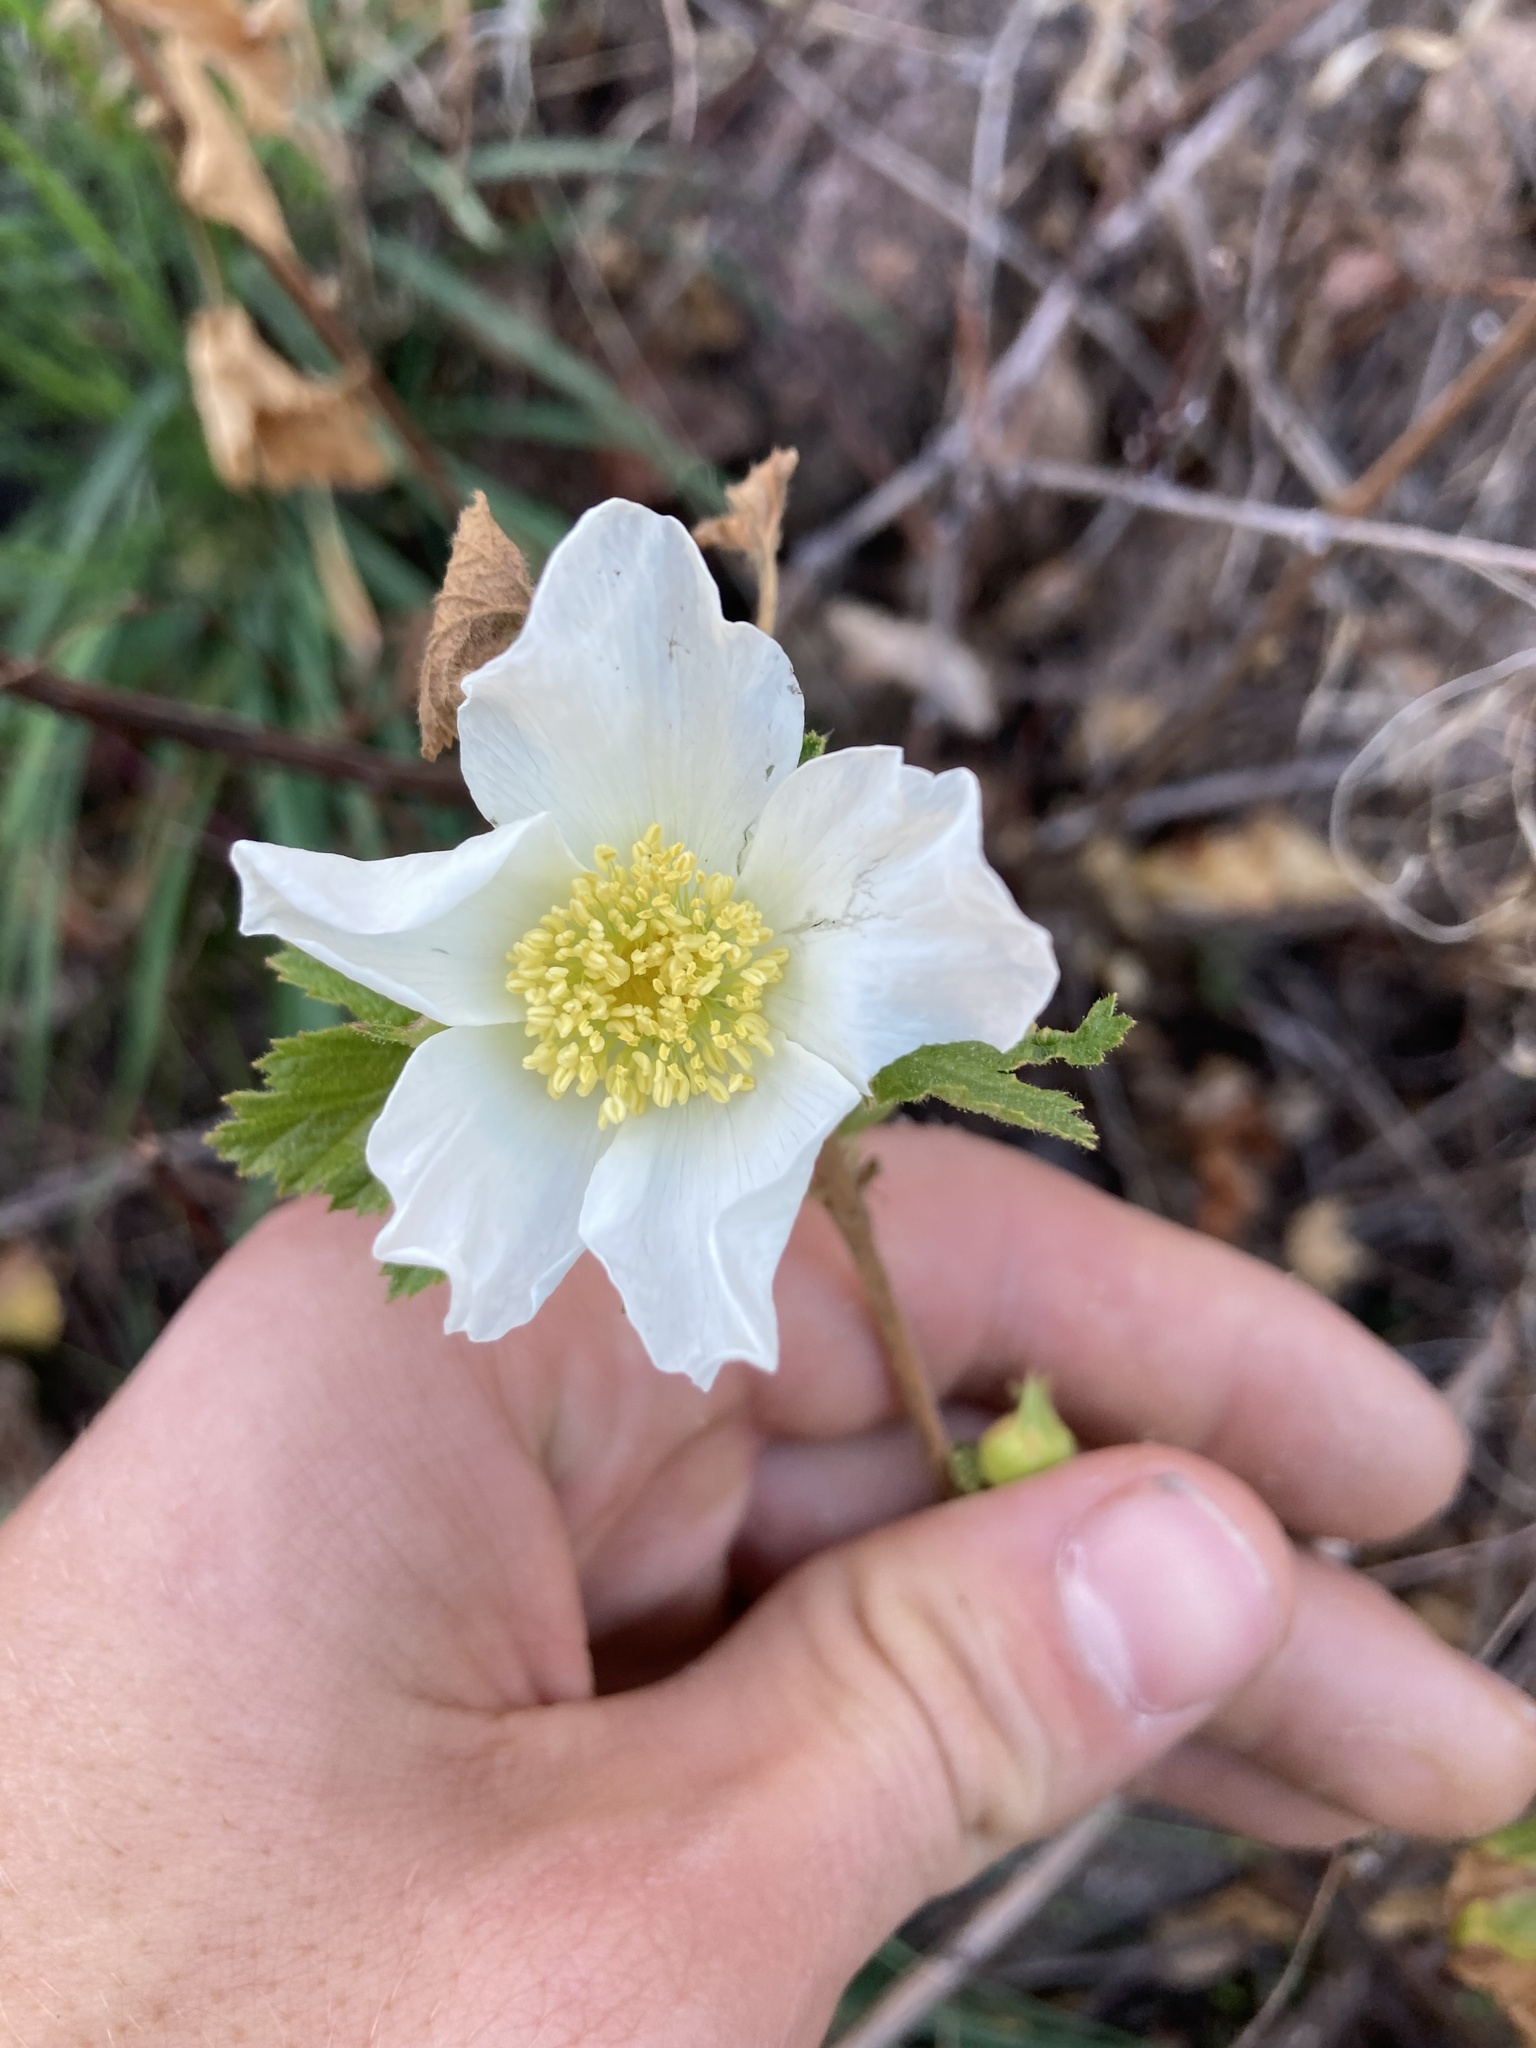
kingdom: Plantae
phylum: Tracheophyta
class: Magnoliopsida
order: Rosales
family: Rosaceae
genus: Rubus
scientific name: Rubus deliciosus
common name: Rocky mountain raspberry
